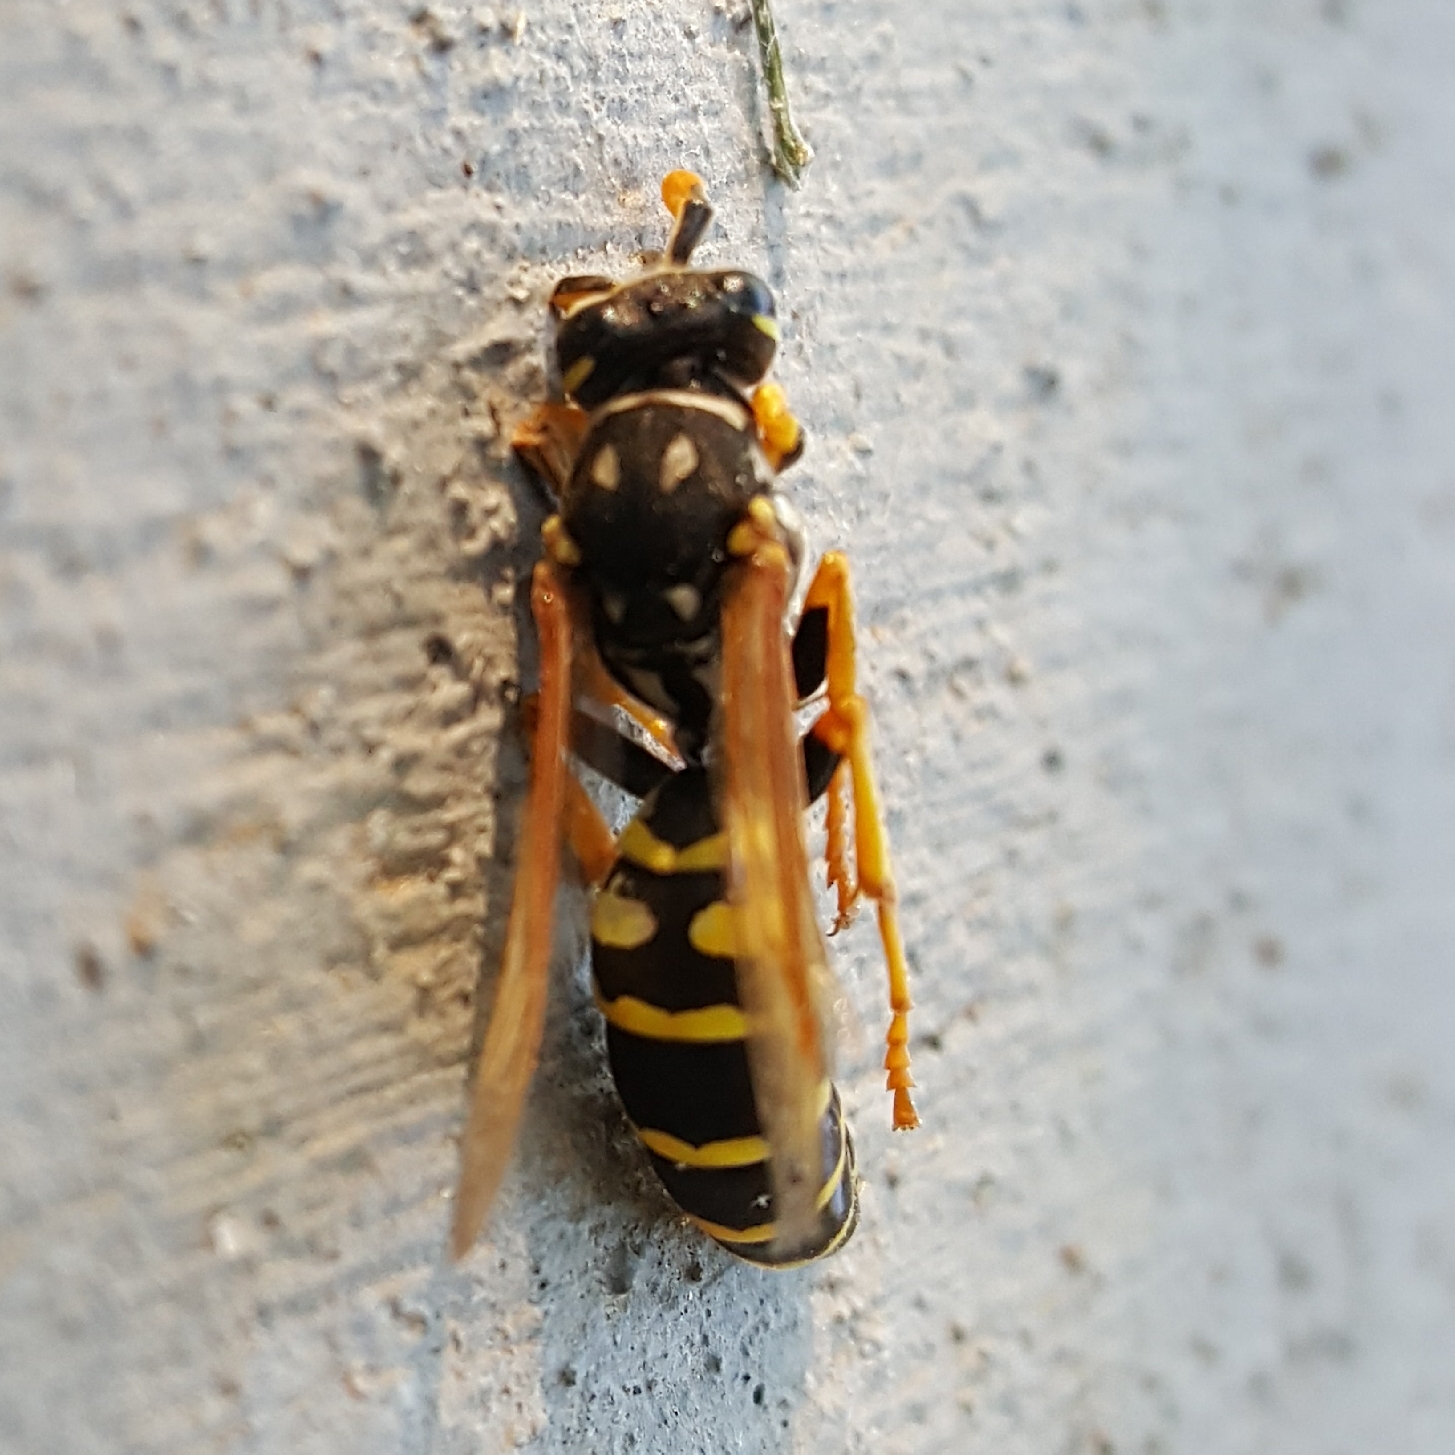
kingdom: Animalia
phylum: Arthropoda
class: Insecta
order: Hymenoptera
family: Eumenidae
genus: Polistes
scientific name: Polistes dominula
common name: Paper wasp
